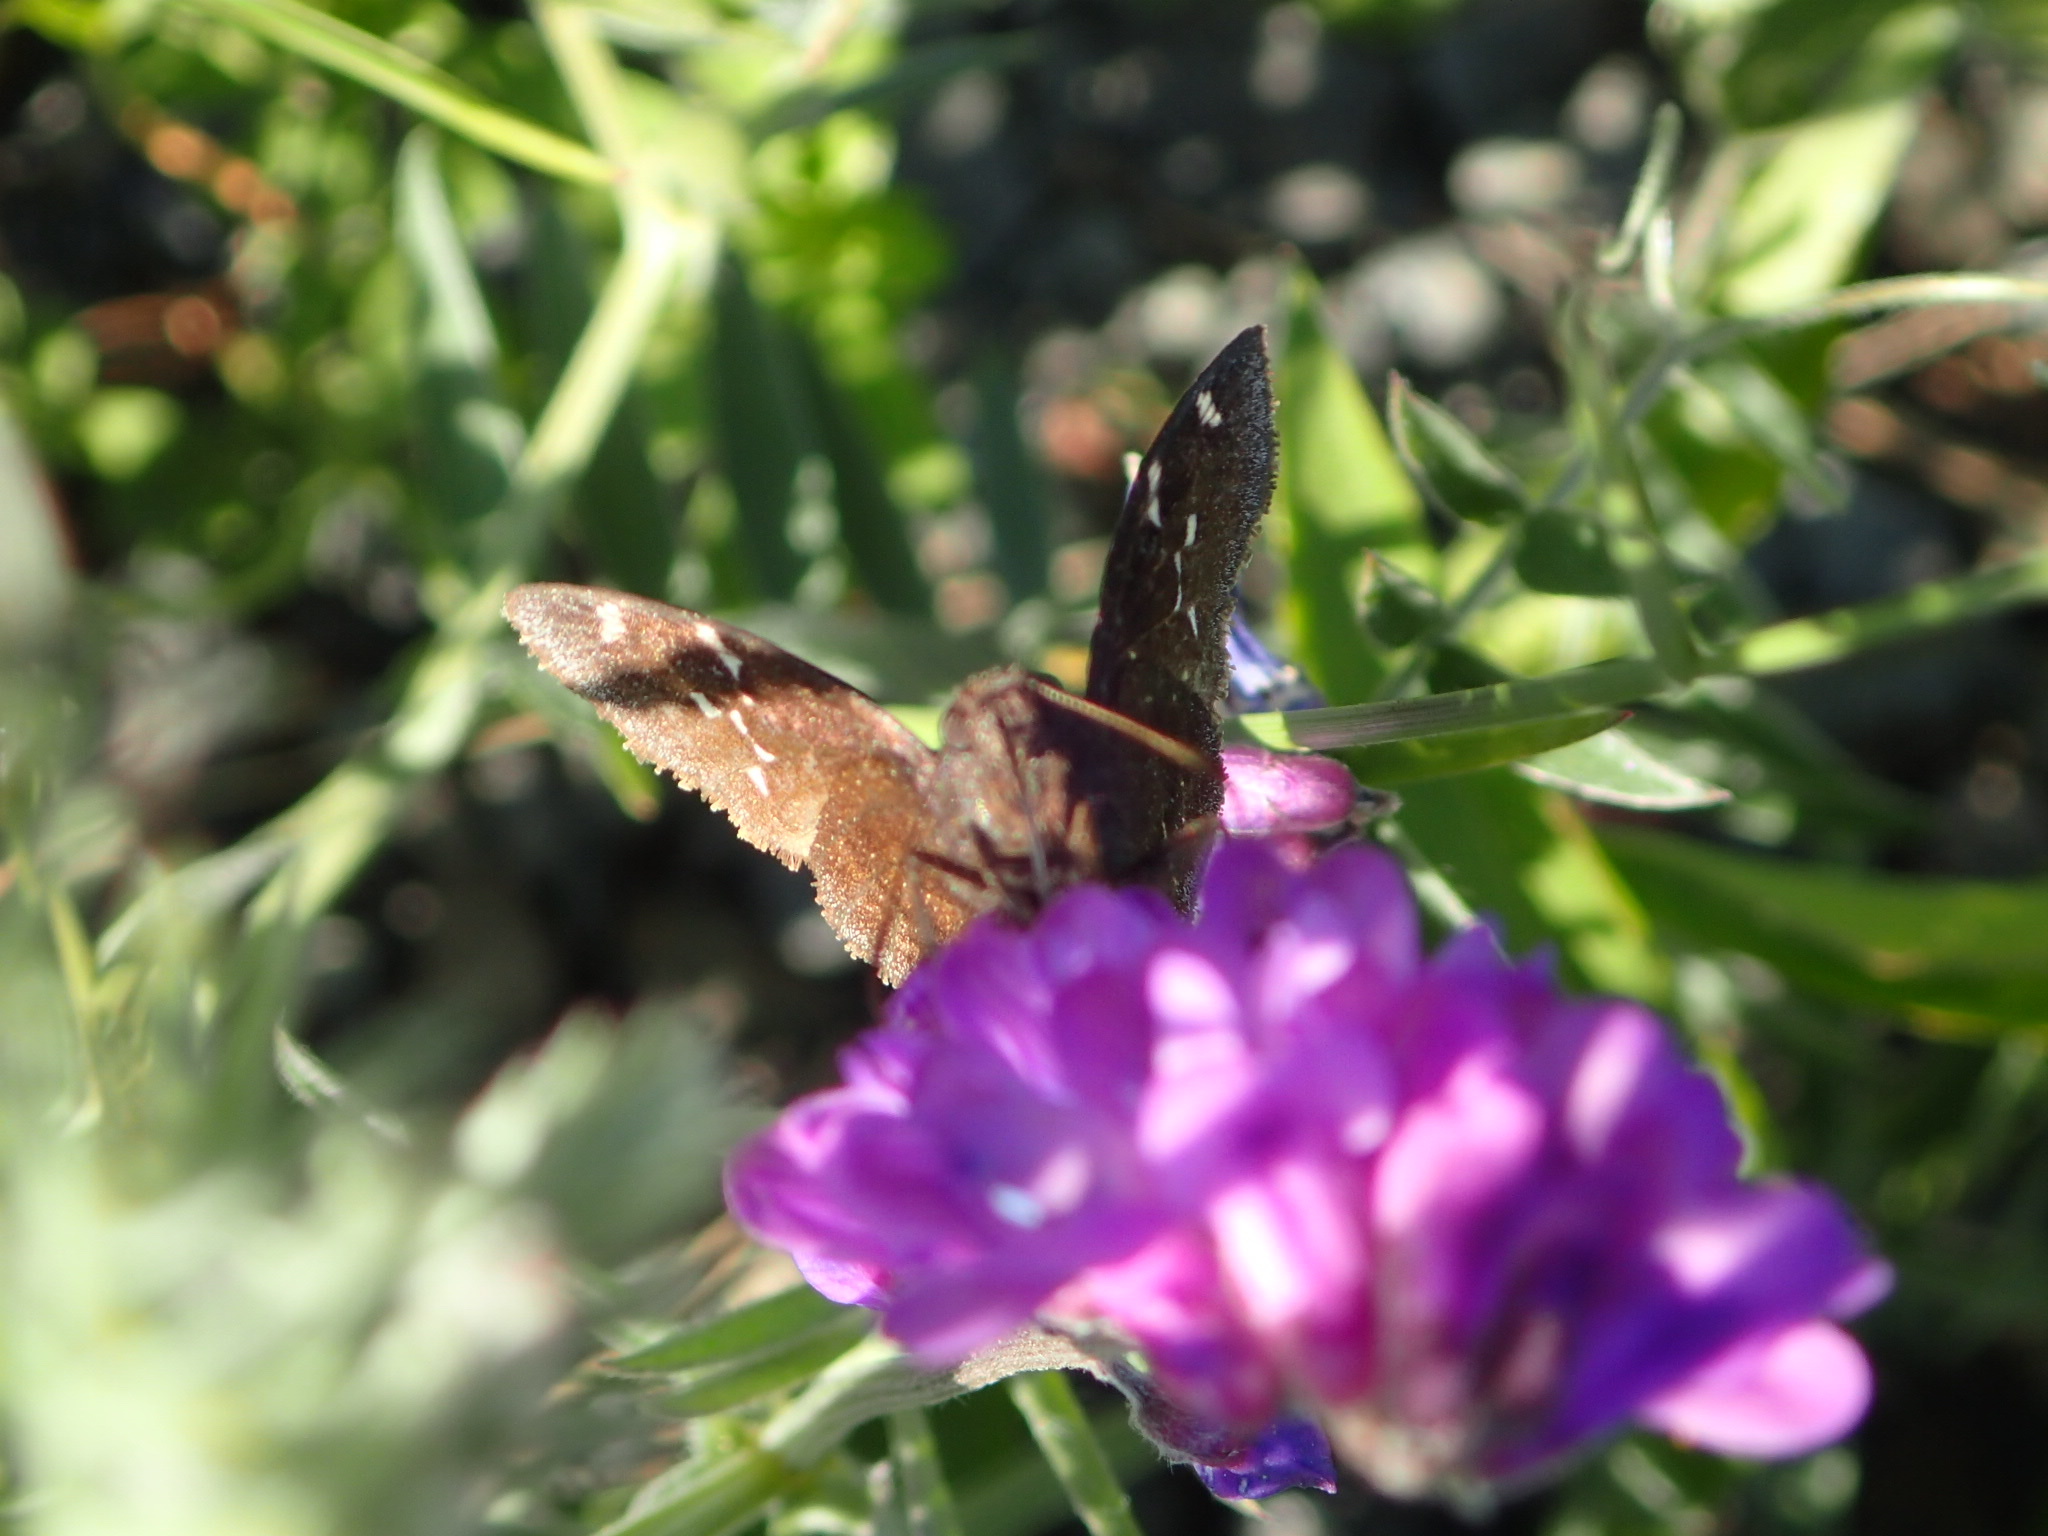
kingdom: Animalia
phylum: Arthropoda
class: Insecta
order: Lepidoptera
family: Hesperiidae
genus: Thorybes
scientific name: Thorybes pylades
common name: Northern cloudywing
